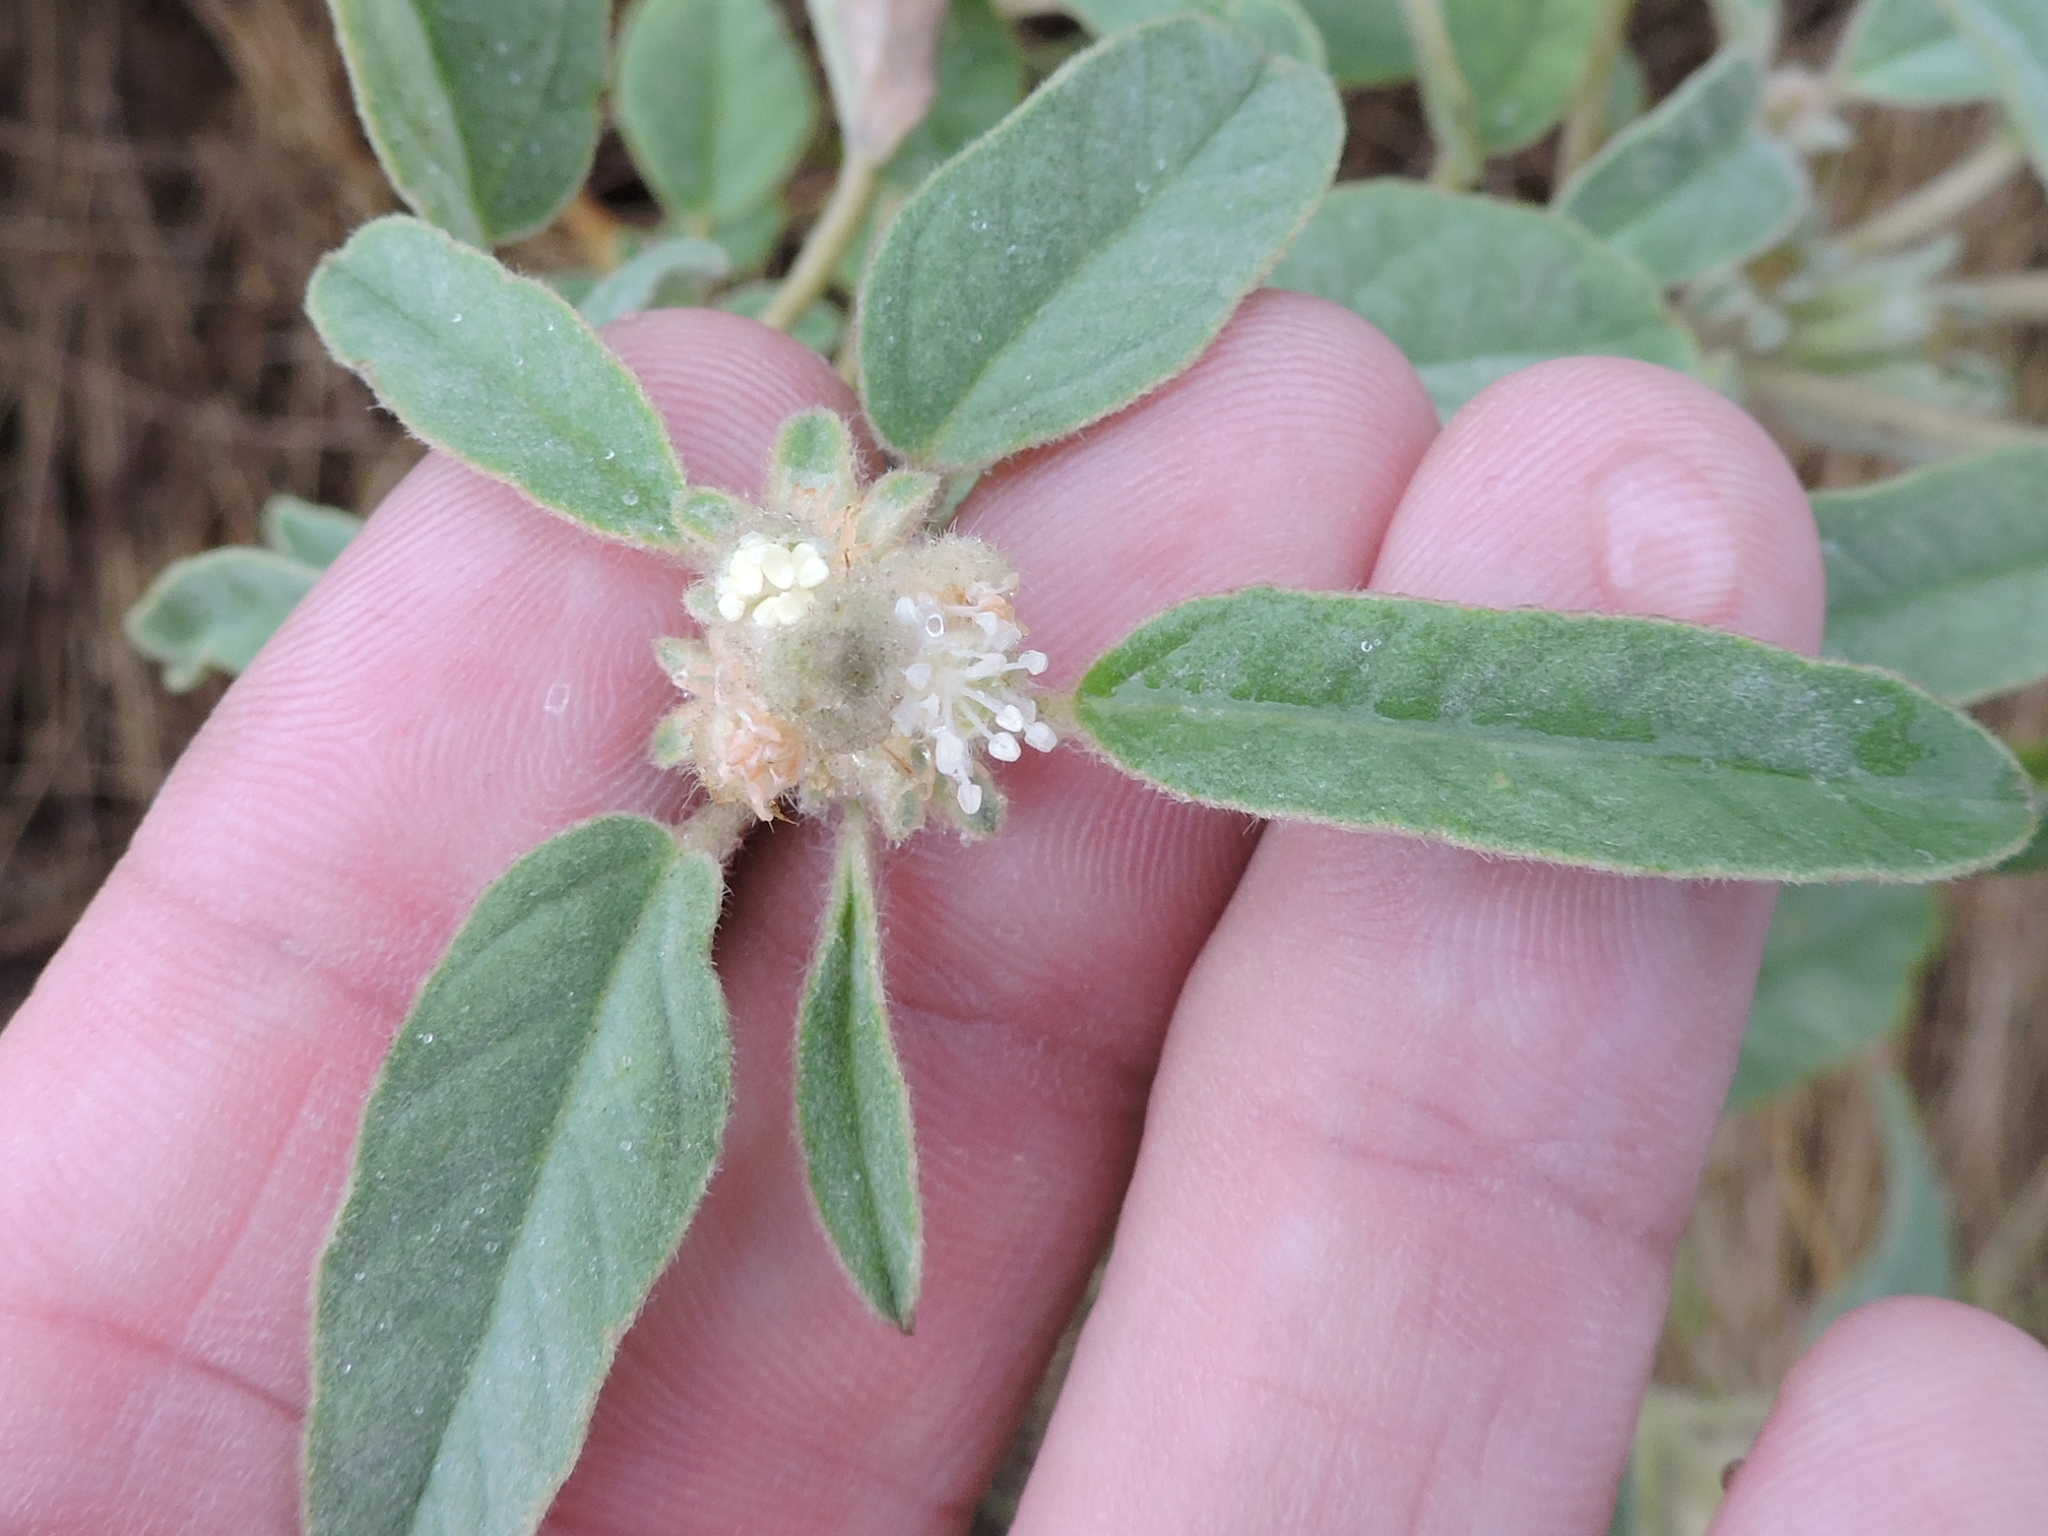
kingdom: Plantae
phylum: Tracheophyta
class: Magnoliopsida
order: Malpighiales
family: Euphorbiaceae
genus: Croton
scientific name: Croton capitatus
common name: Woolly croton
